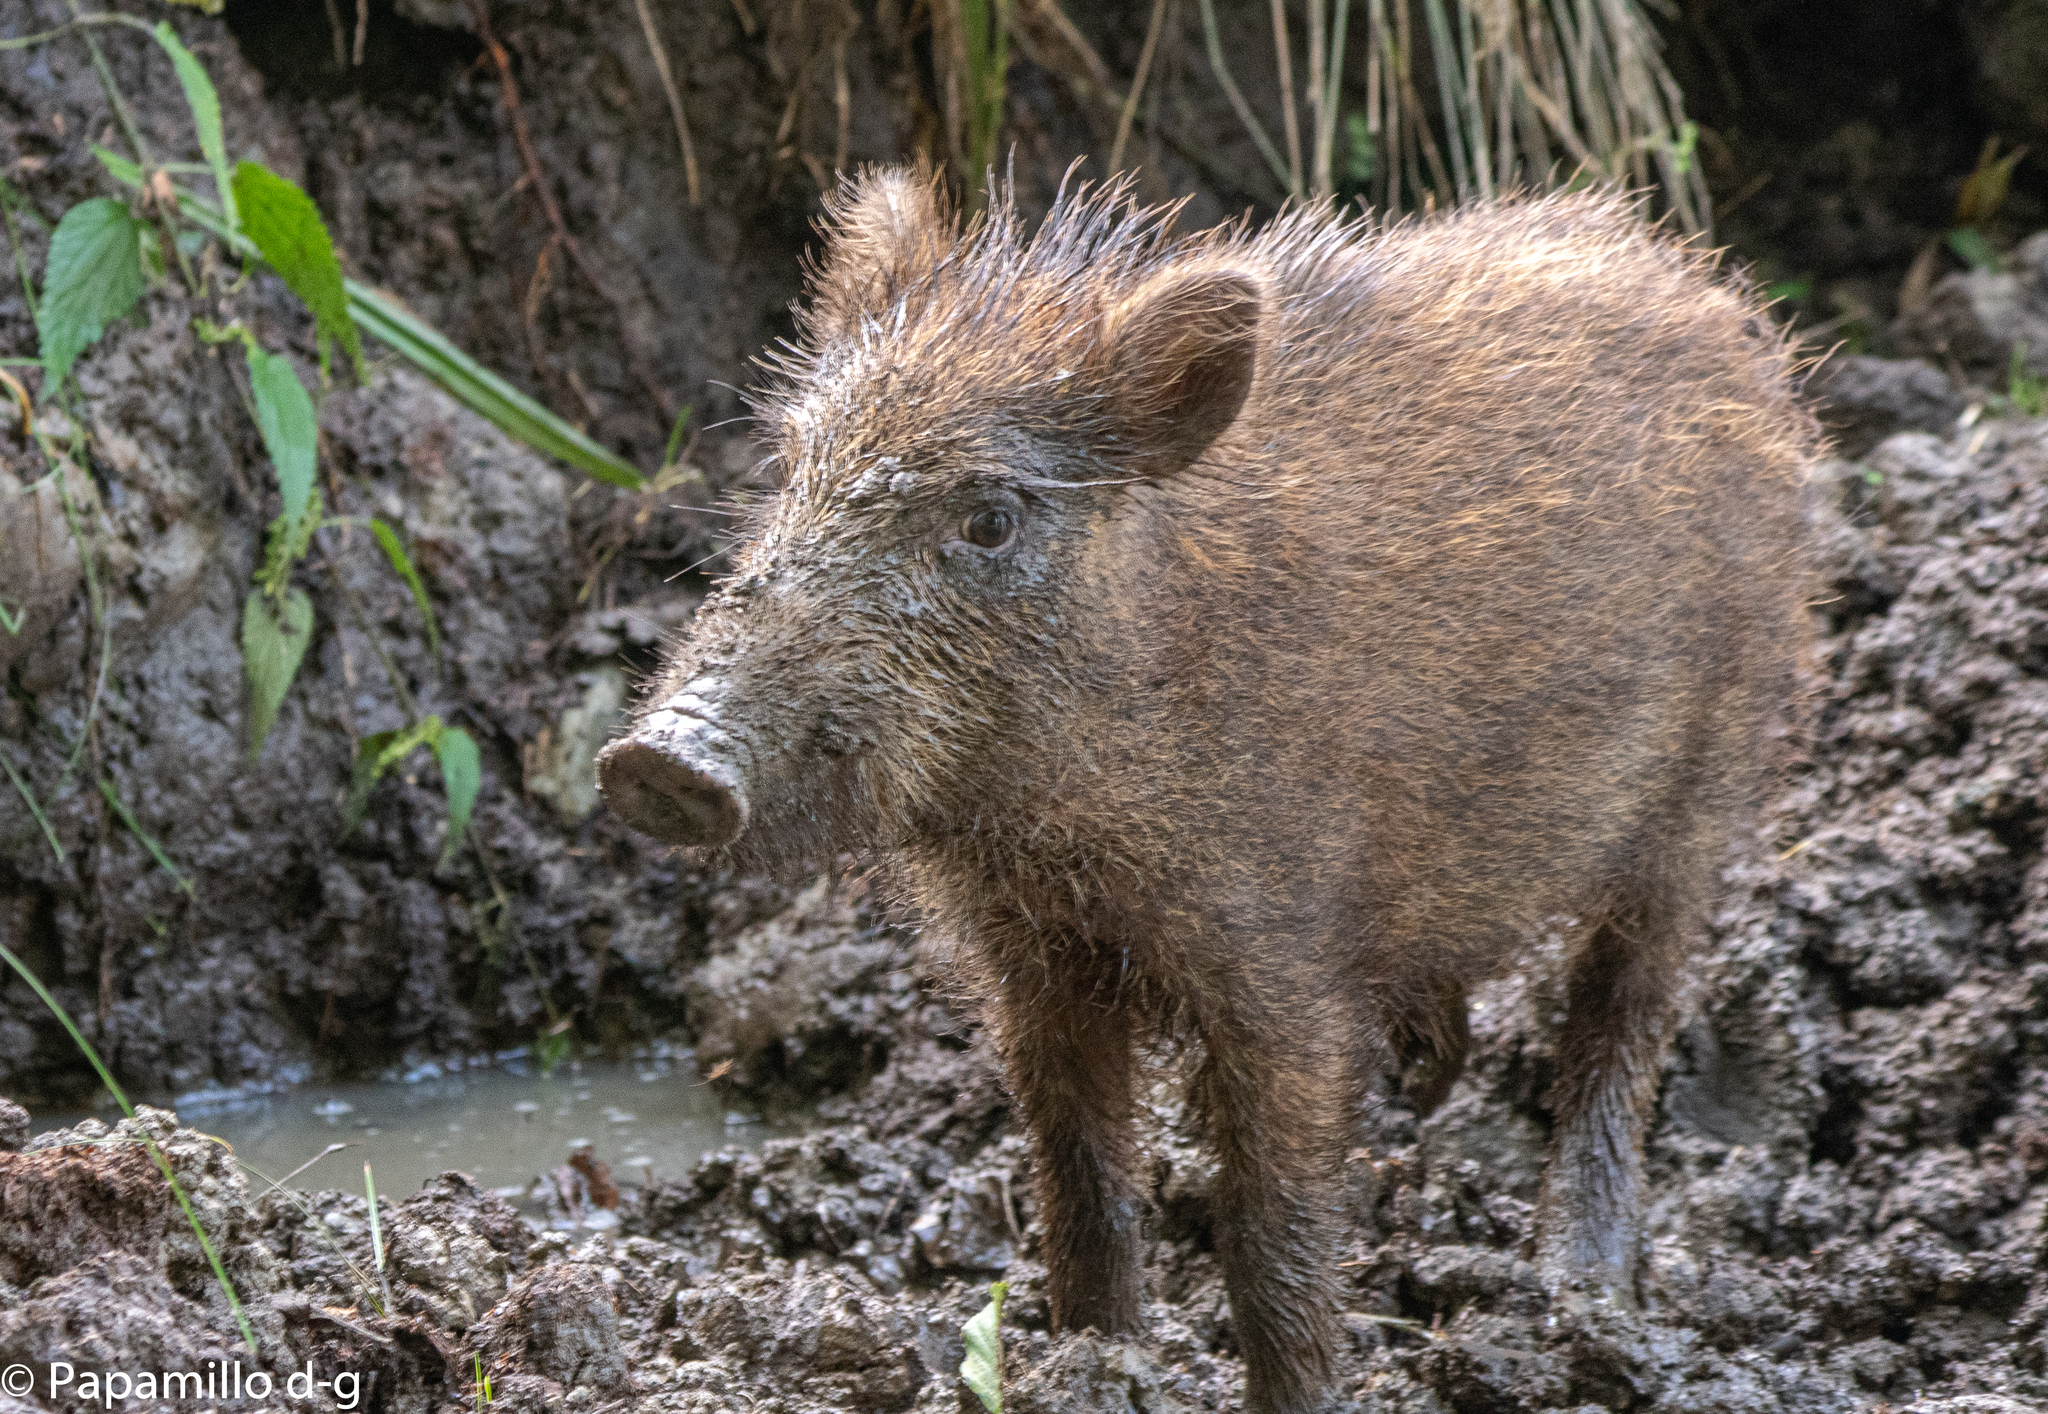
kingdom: Animalia
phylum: Chordata
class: Mammalia
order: Artiodactyla
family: Suidae
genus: Sus
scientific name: Sus scrofa
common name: Wild boar
